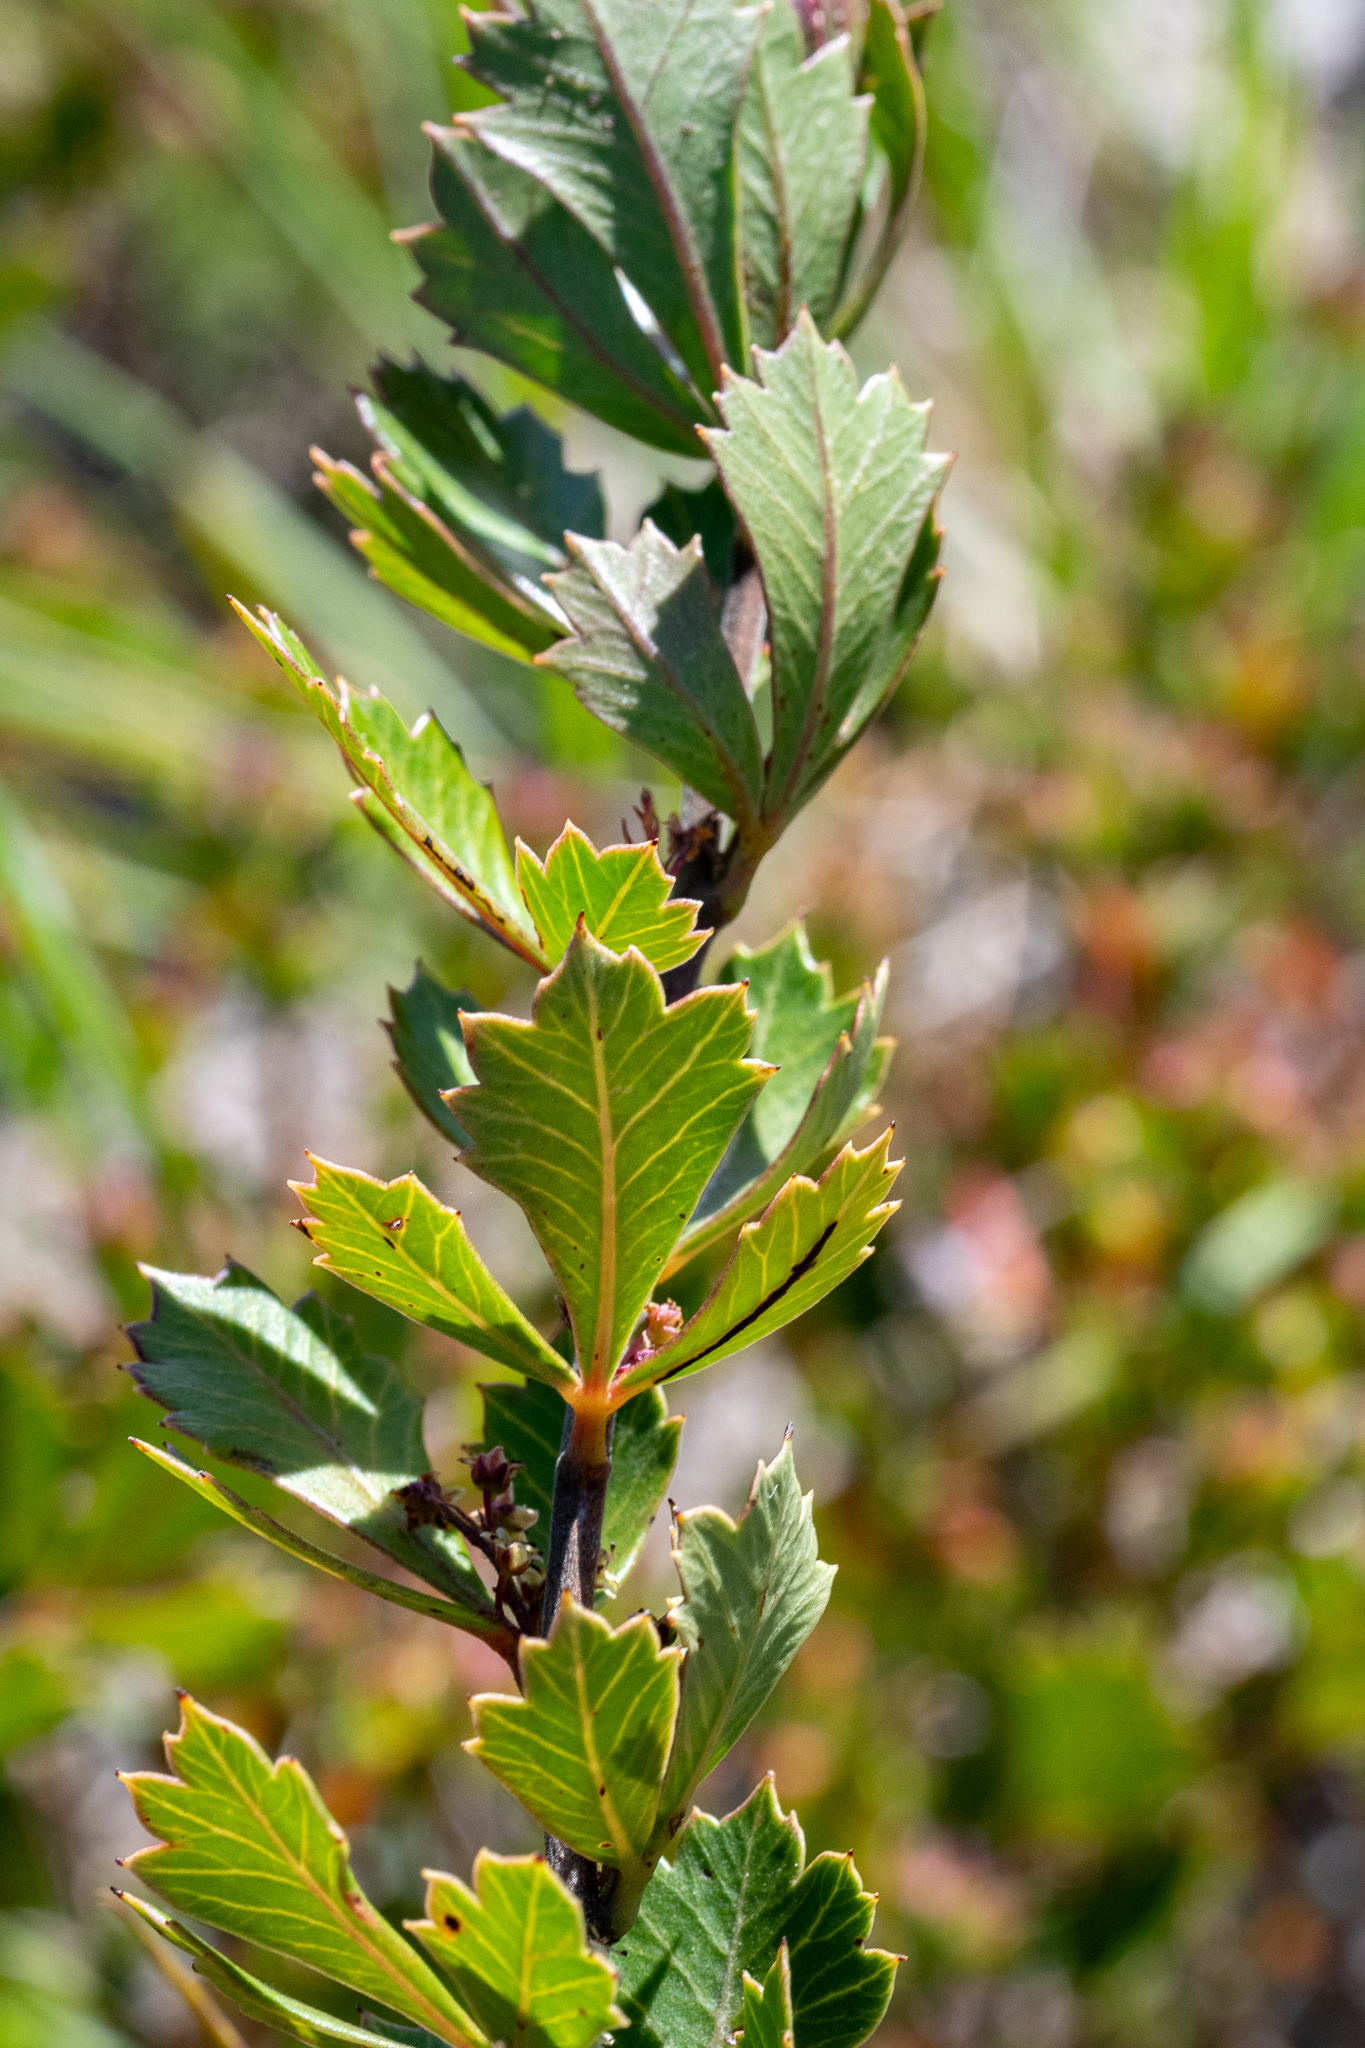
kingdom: Plantae
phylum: Tracheophyta
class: Magnoliopsida
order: Sapindales
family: Anacardiaceae
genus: Searsia
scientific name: Searsia cuneifolia
